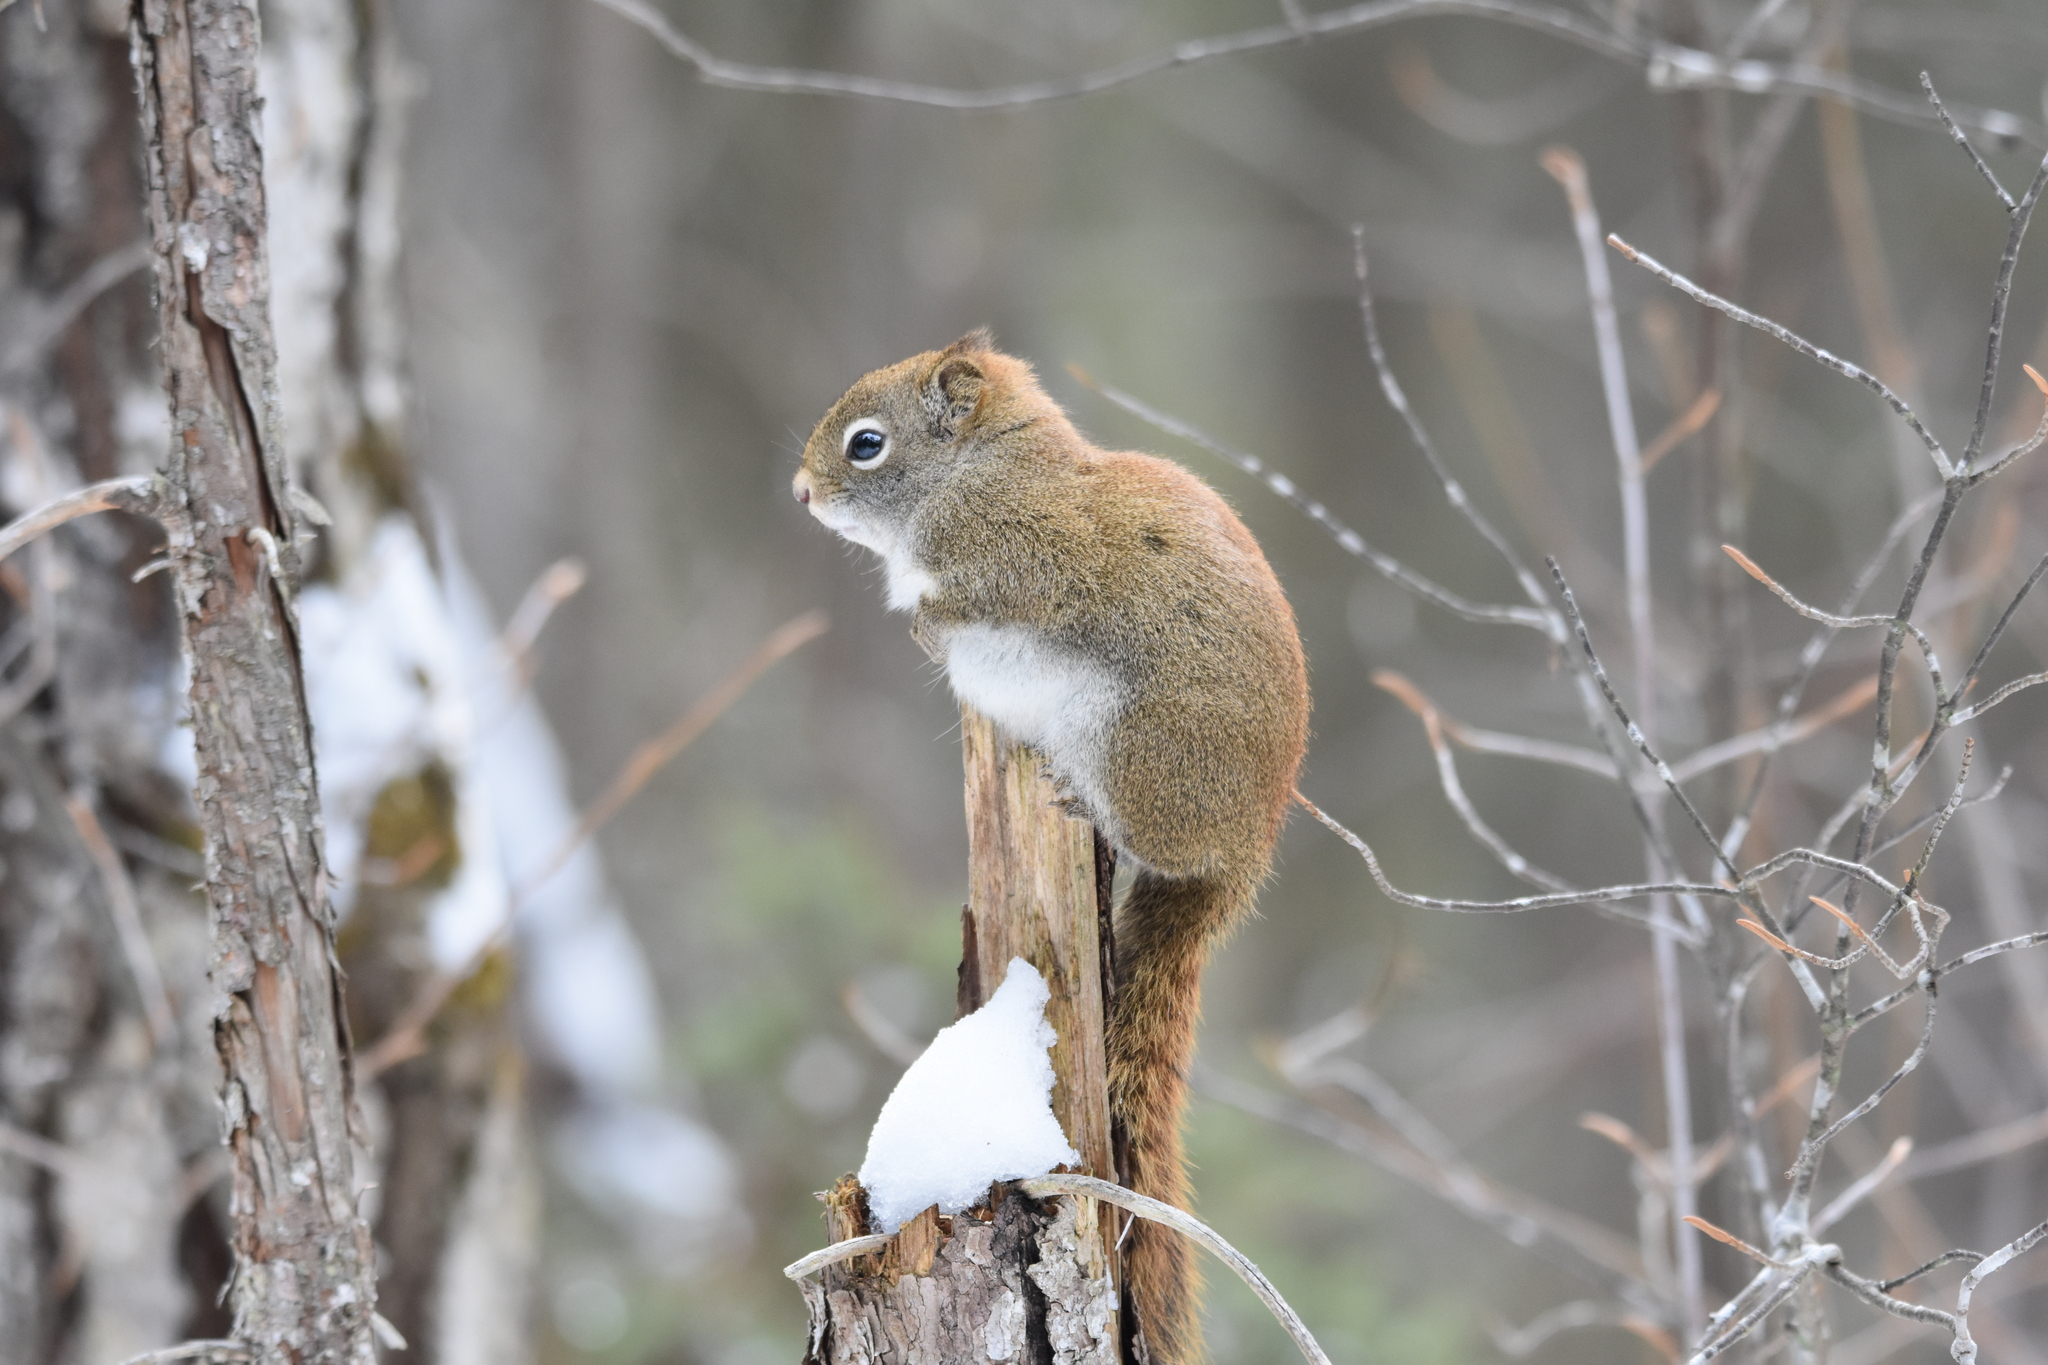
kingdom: Animalia
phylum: Chordata
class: Mammalia
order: Rodentia
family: Sciuridae
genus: Tamiasciurus
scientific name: Tamiasciurus hudsonicus
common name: Red squirrel
